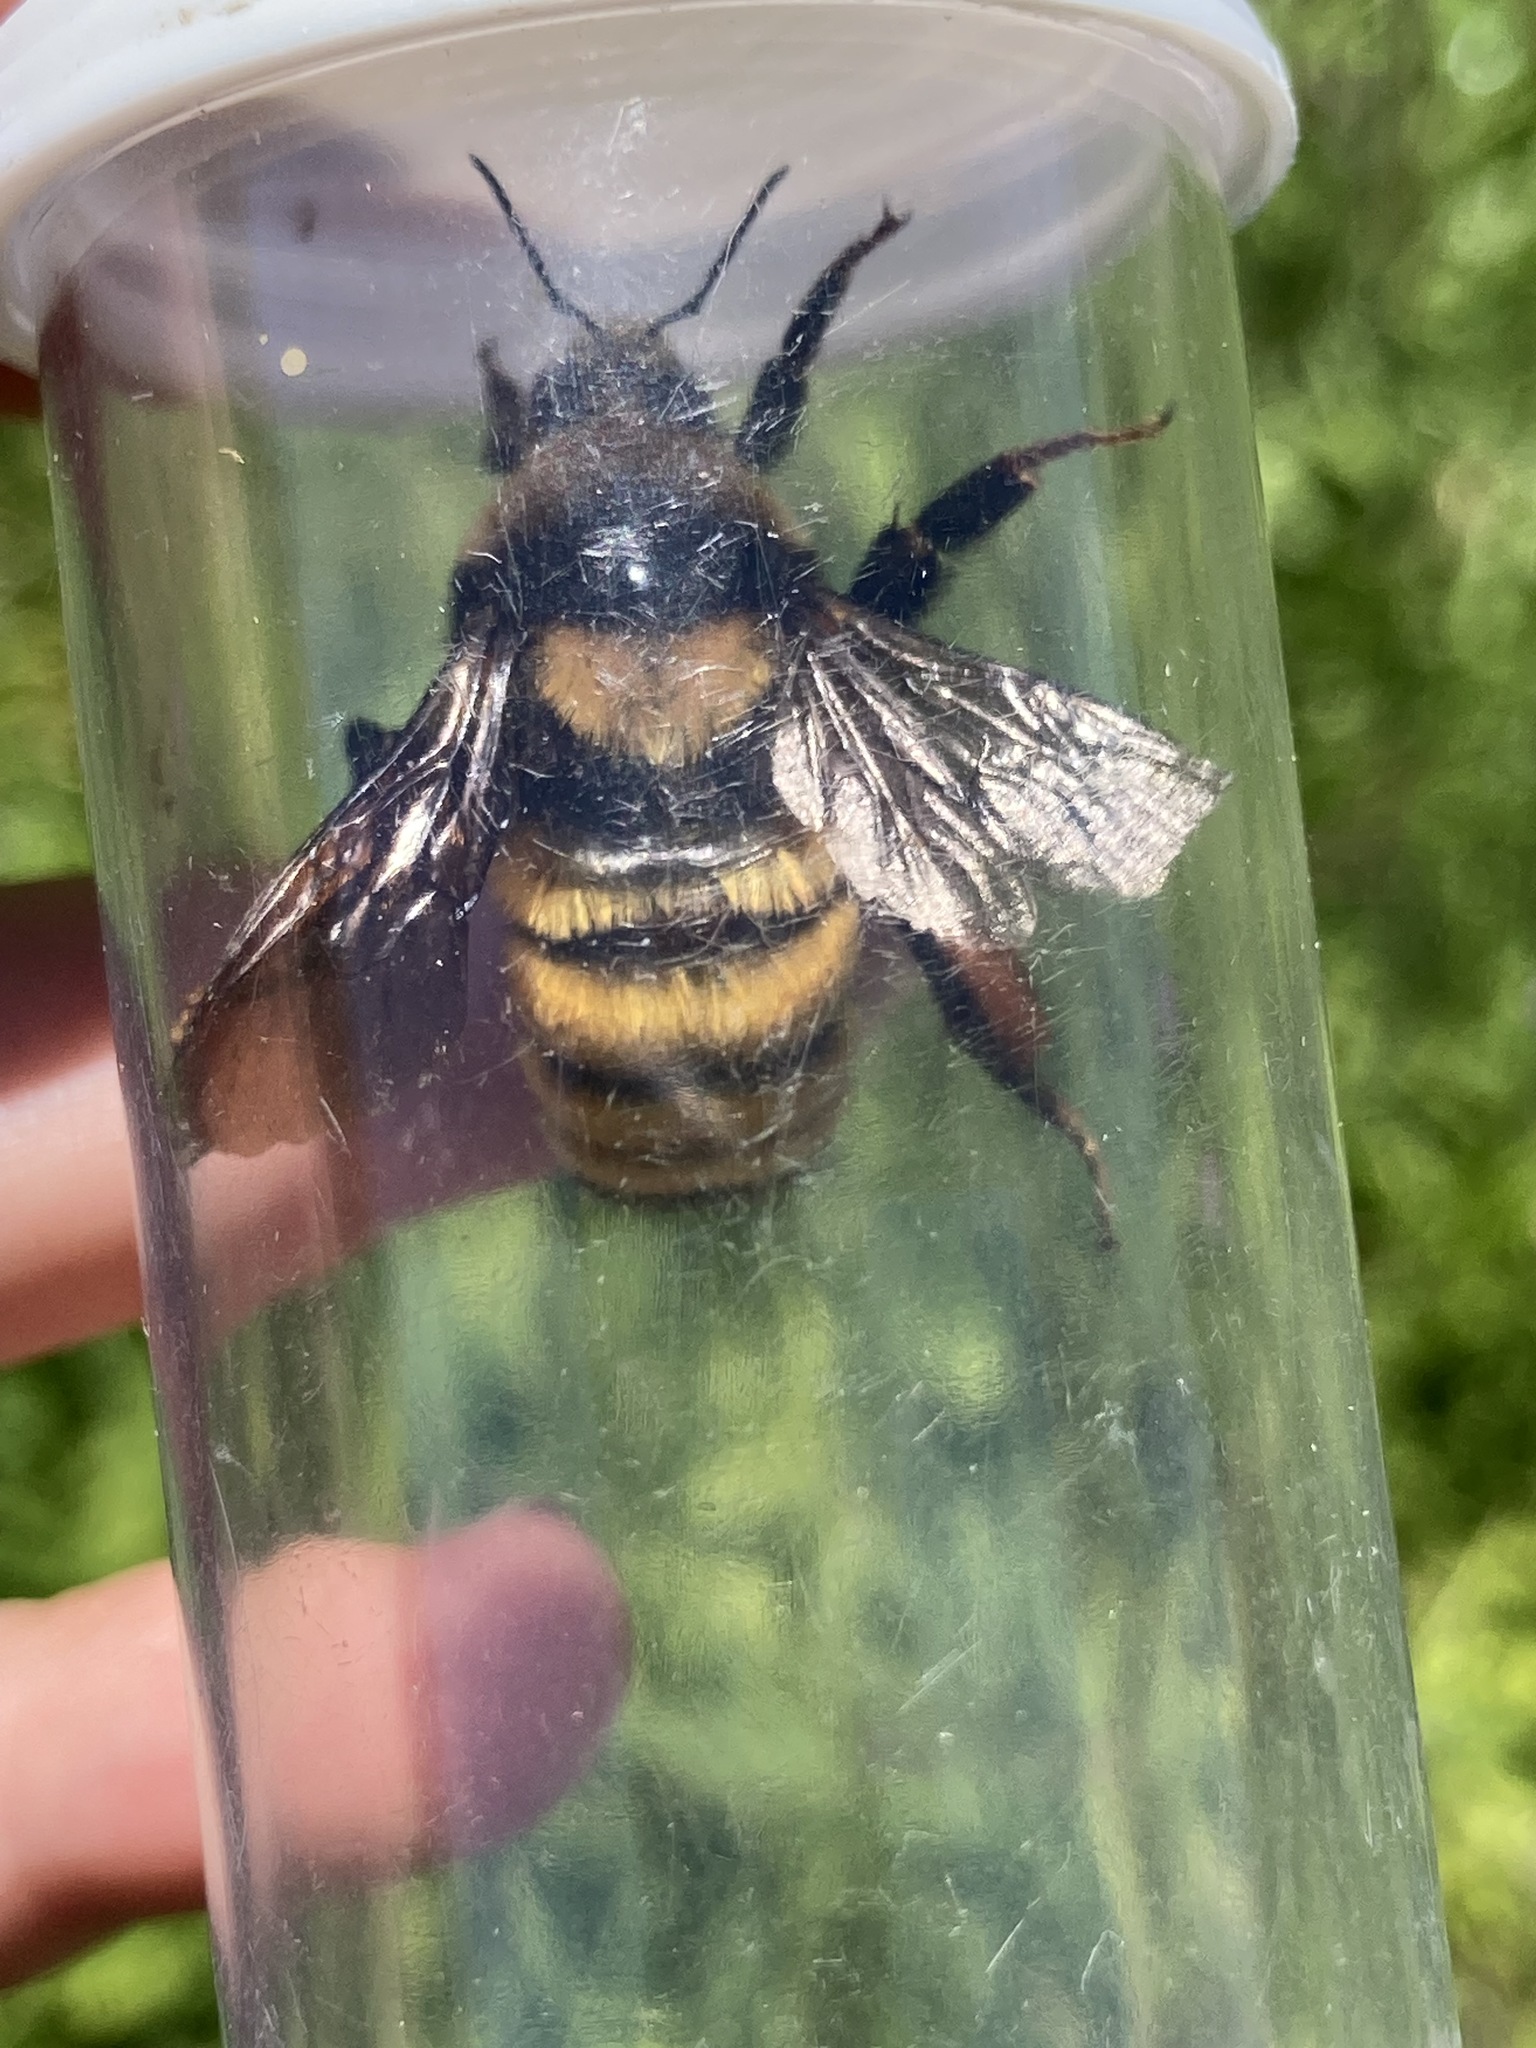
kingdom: Animalia
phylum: Arthropoda
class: Insecta
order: Hymenoptera
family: Apidae
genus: Bombus
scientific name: Bombus borealis
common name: Northern amber bumble bee
